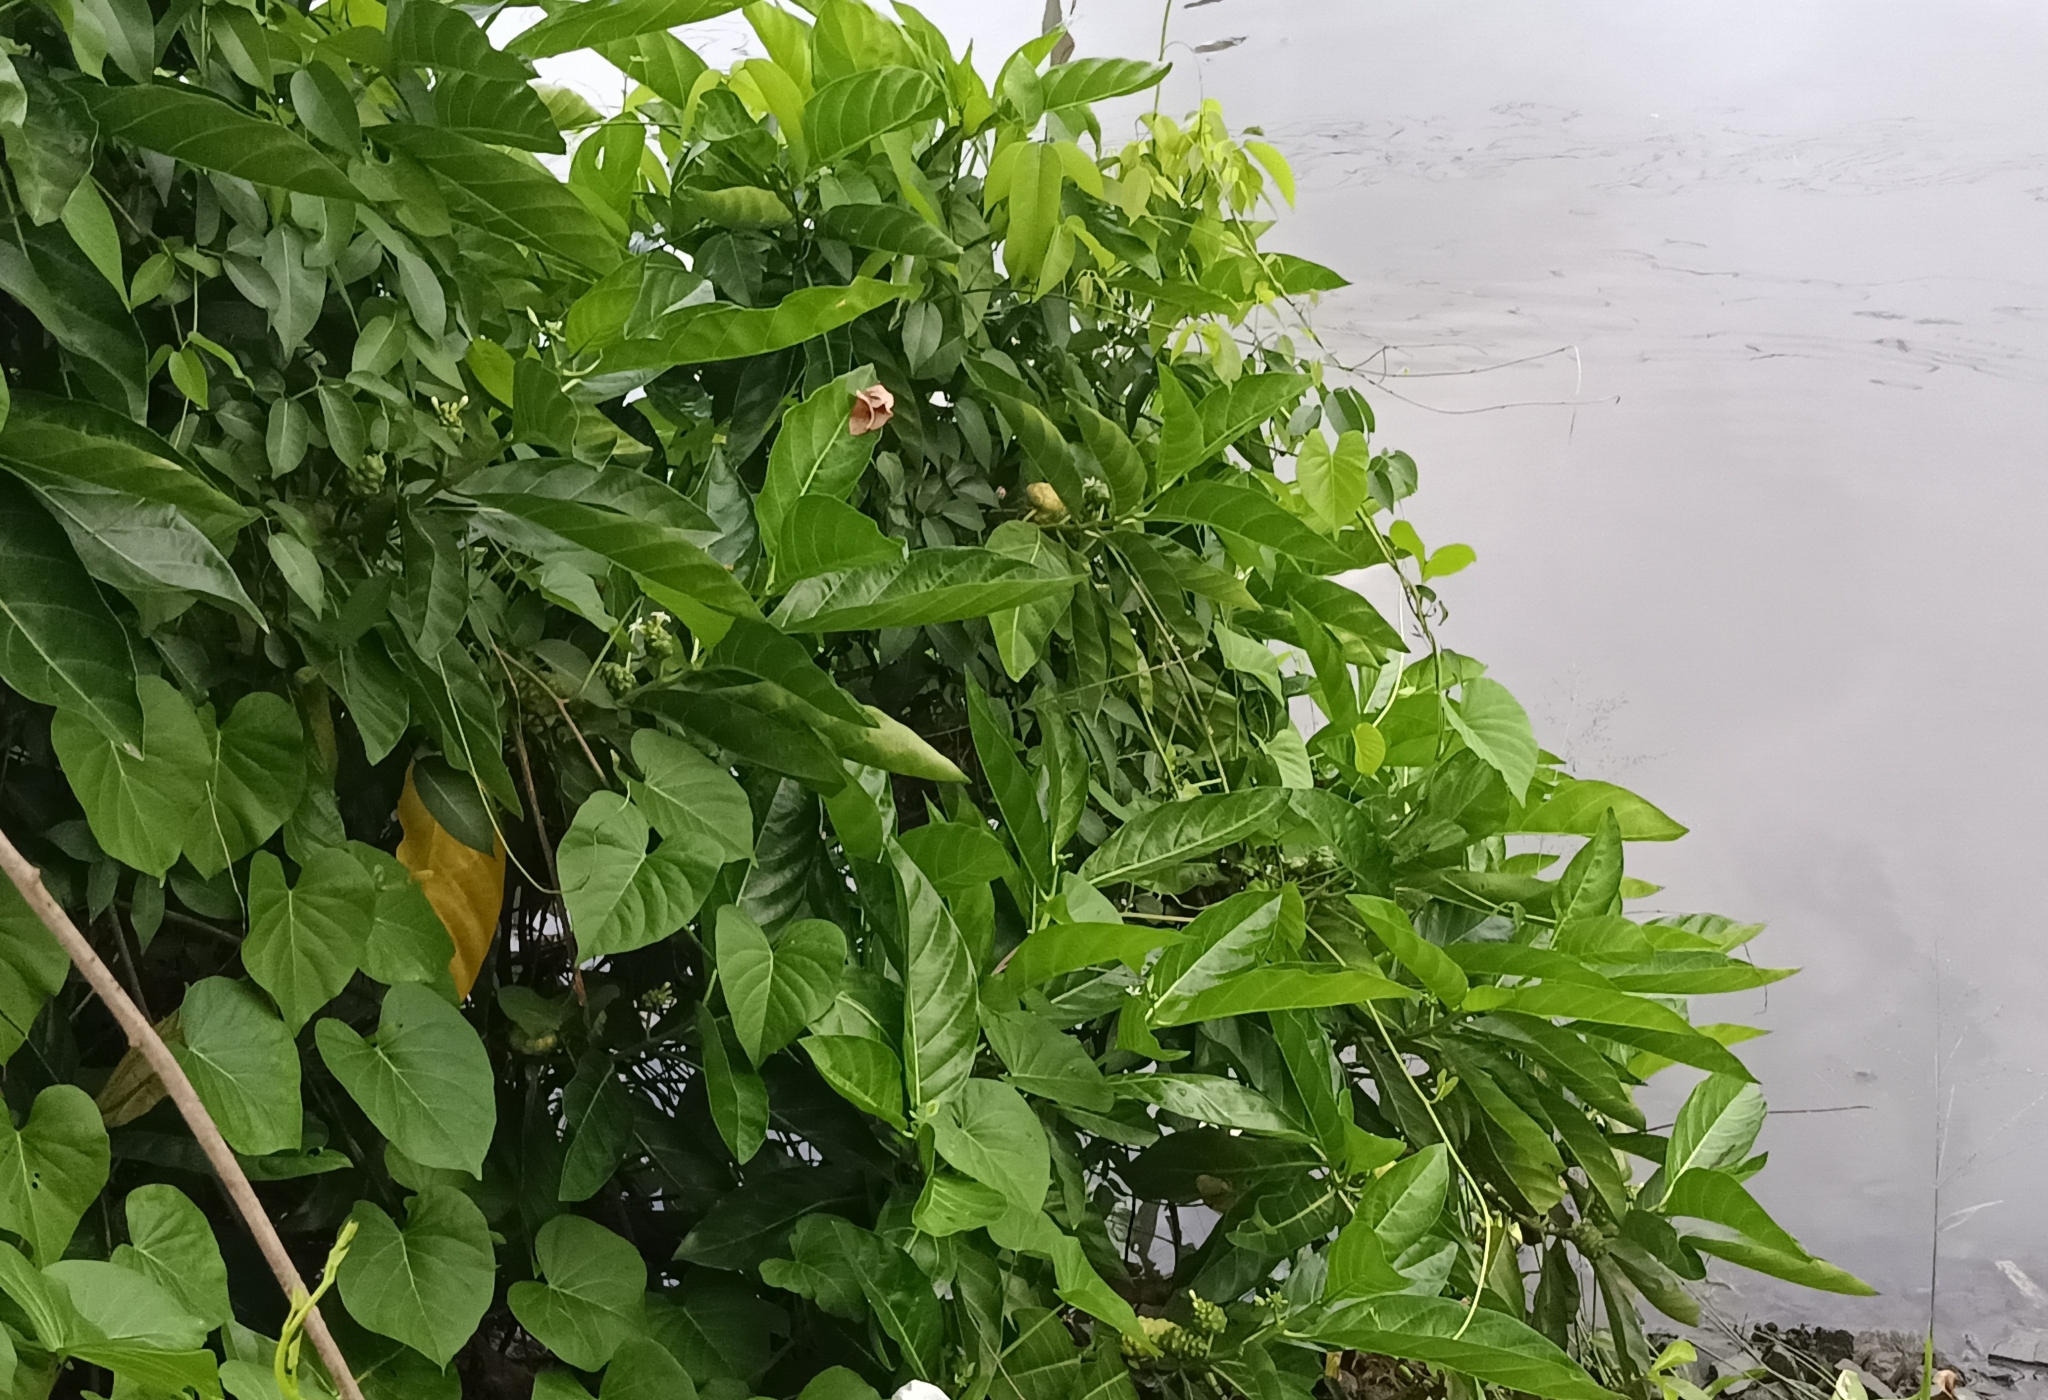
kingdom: Plantae
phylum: Tracheophyta
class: Magnoliopsida
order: Gentianales
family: Rubiaceae
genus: Morinda
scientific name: Morinda citrifolia
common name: Indian-mulberry
